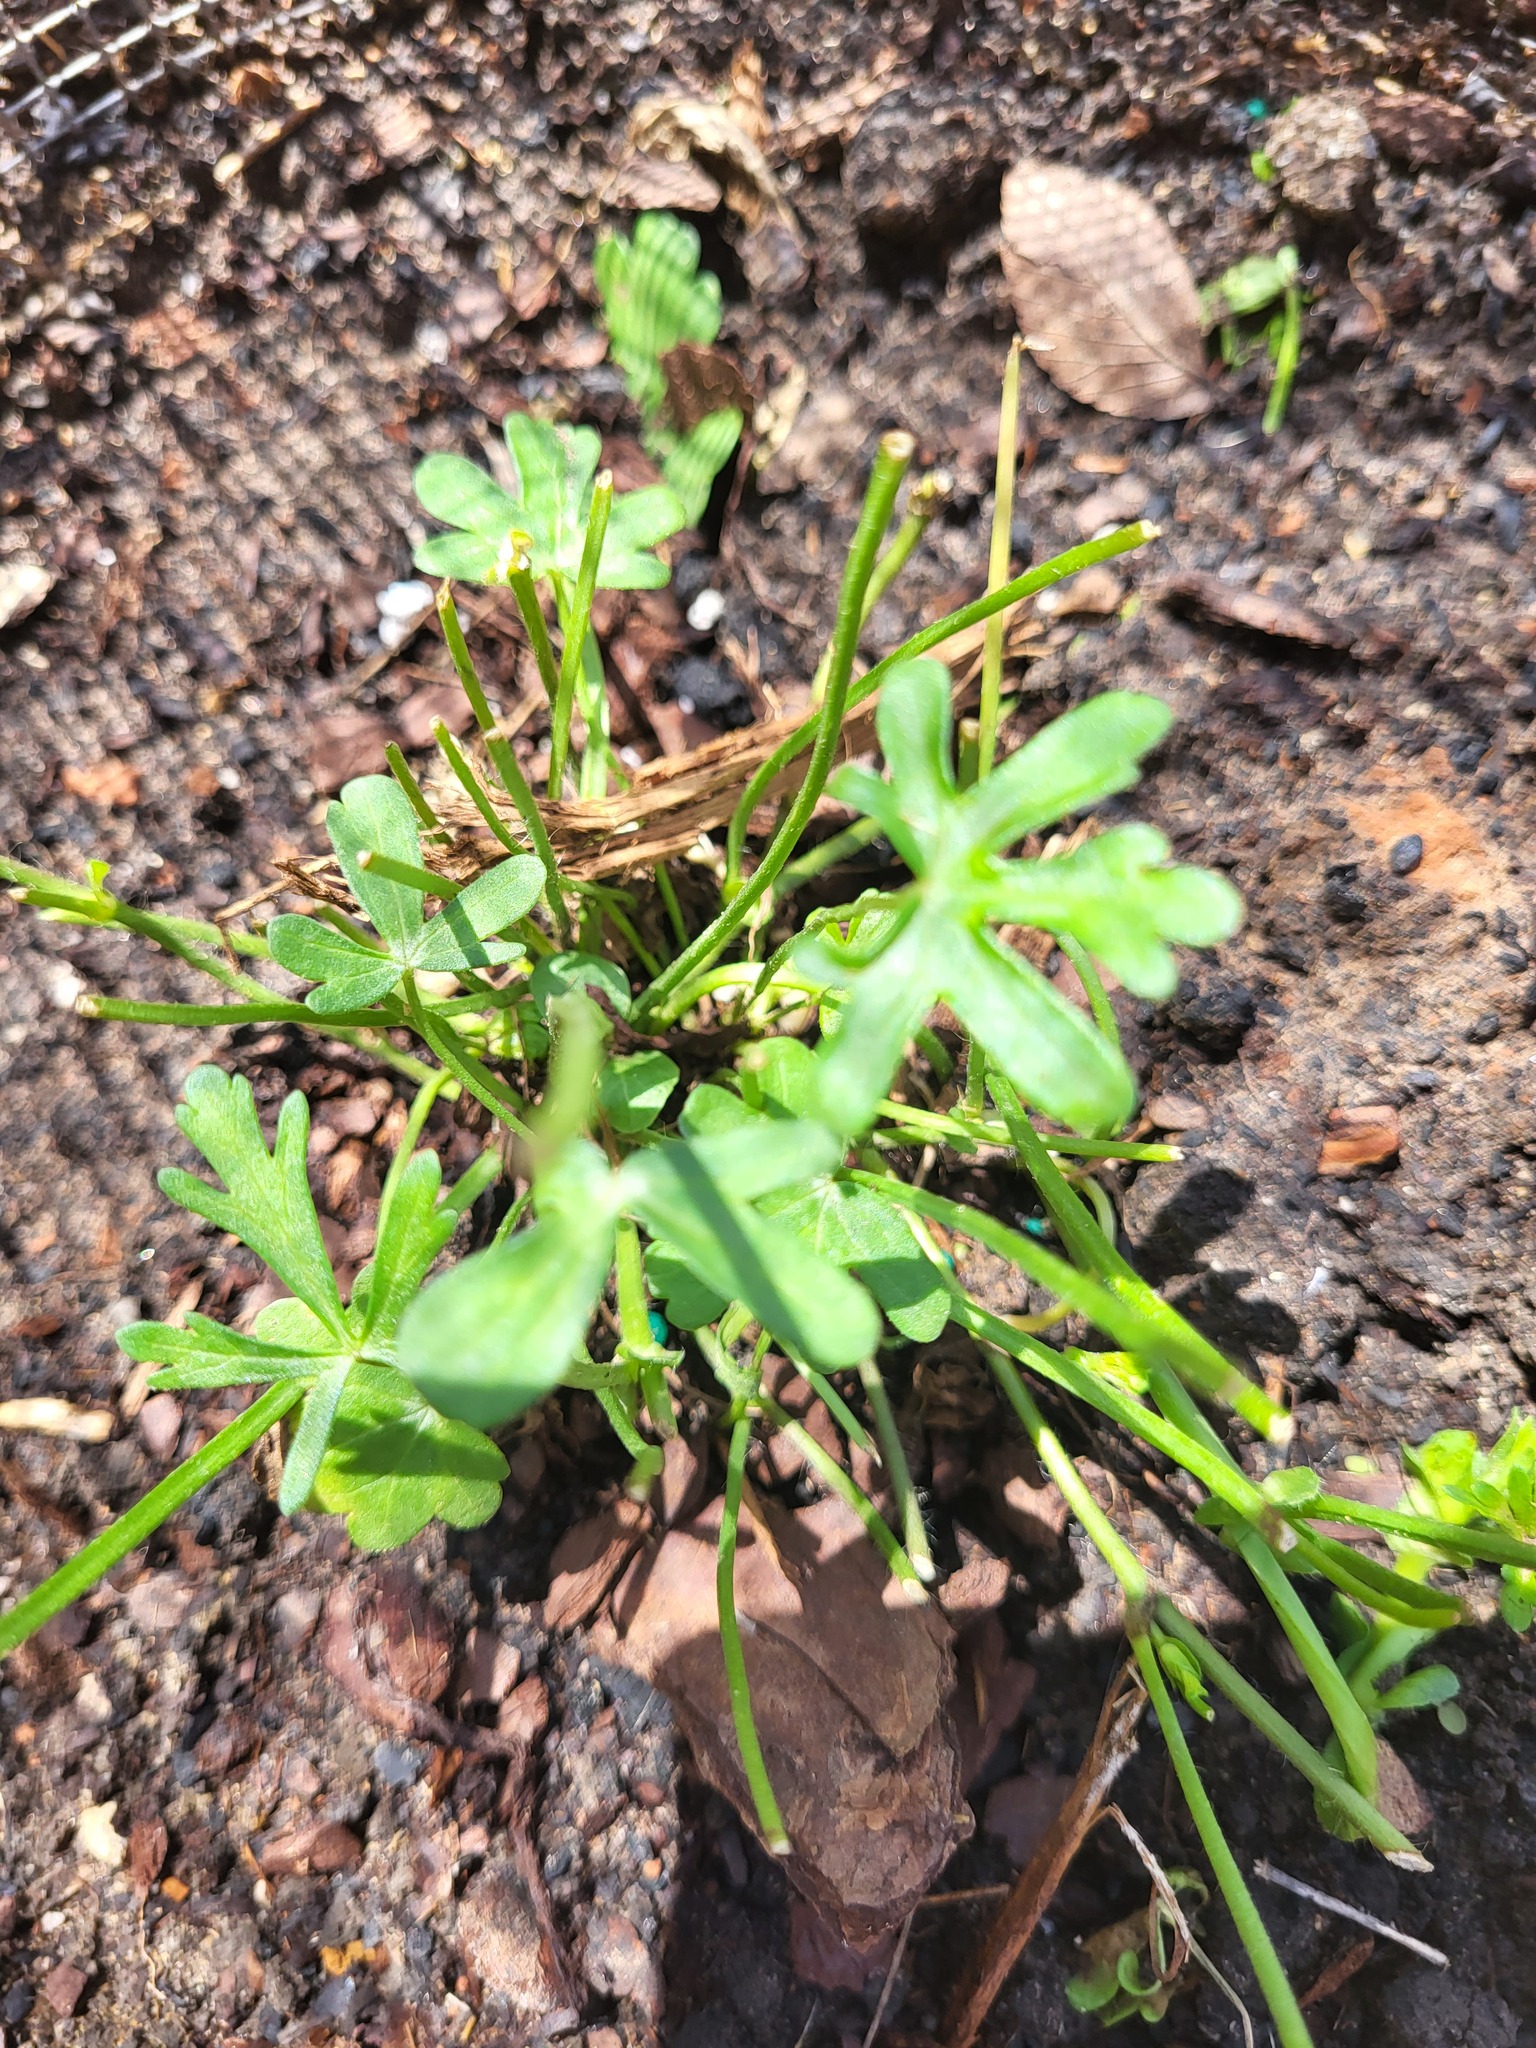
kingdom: Plantae
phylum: Tracheophyta
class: Magnoliopsida
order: Malvales
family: Malvaceae
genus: Callirhoe
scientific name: Callirhoe involucrata
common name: Purple poppy-mallow
